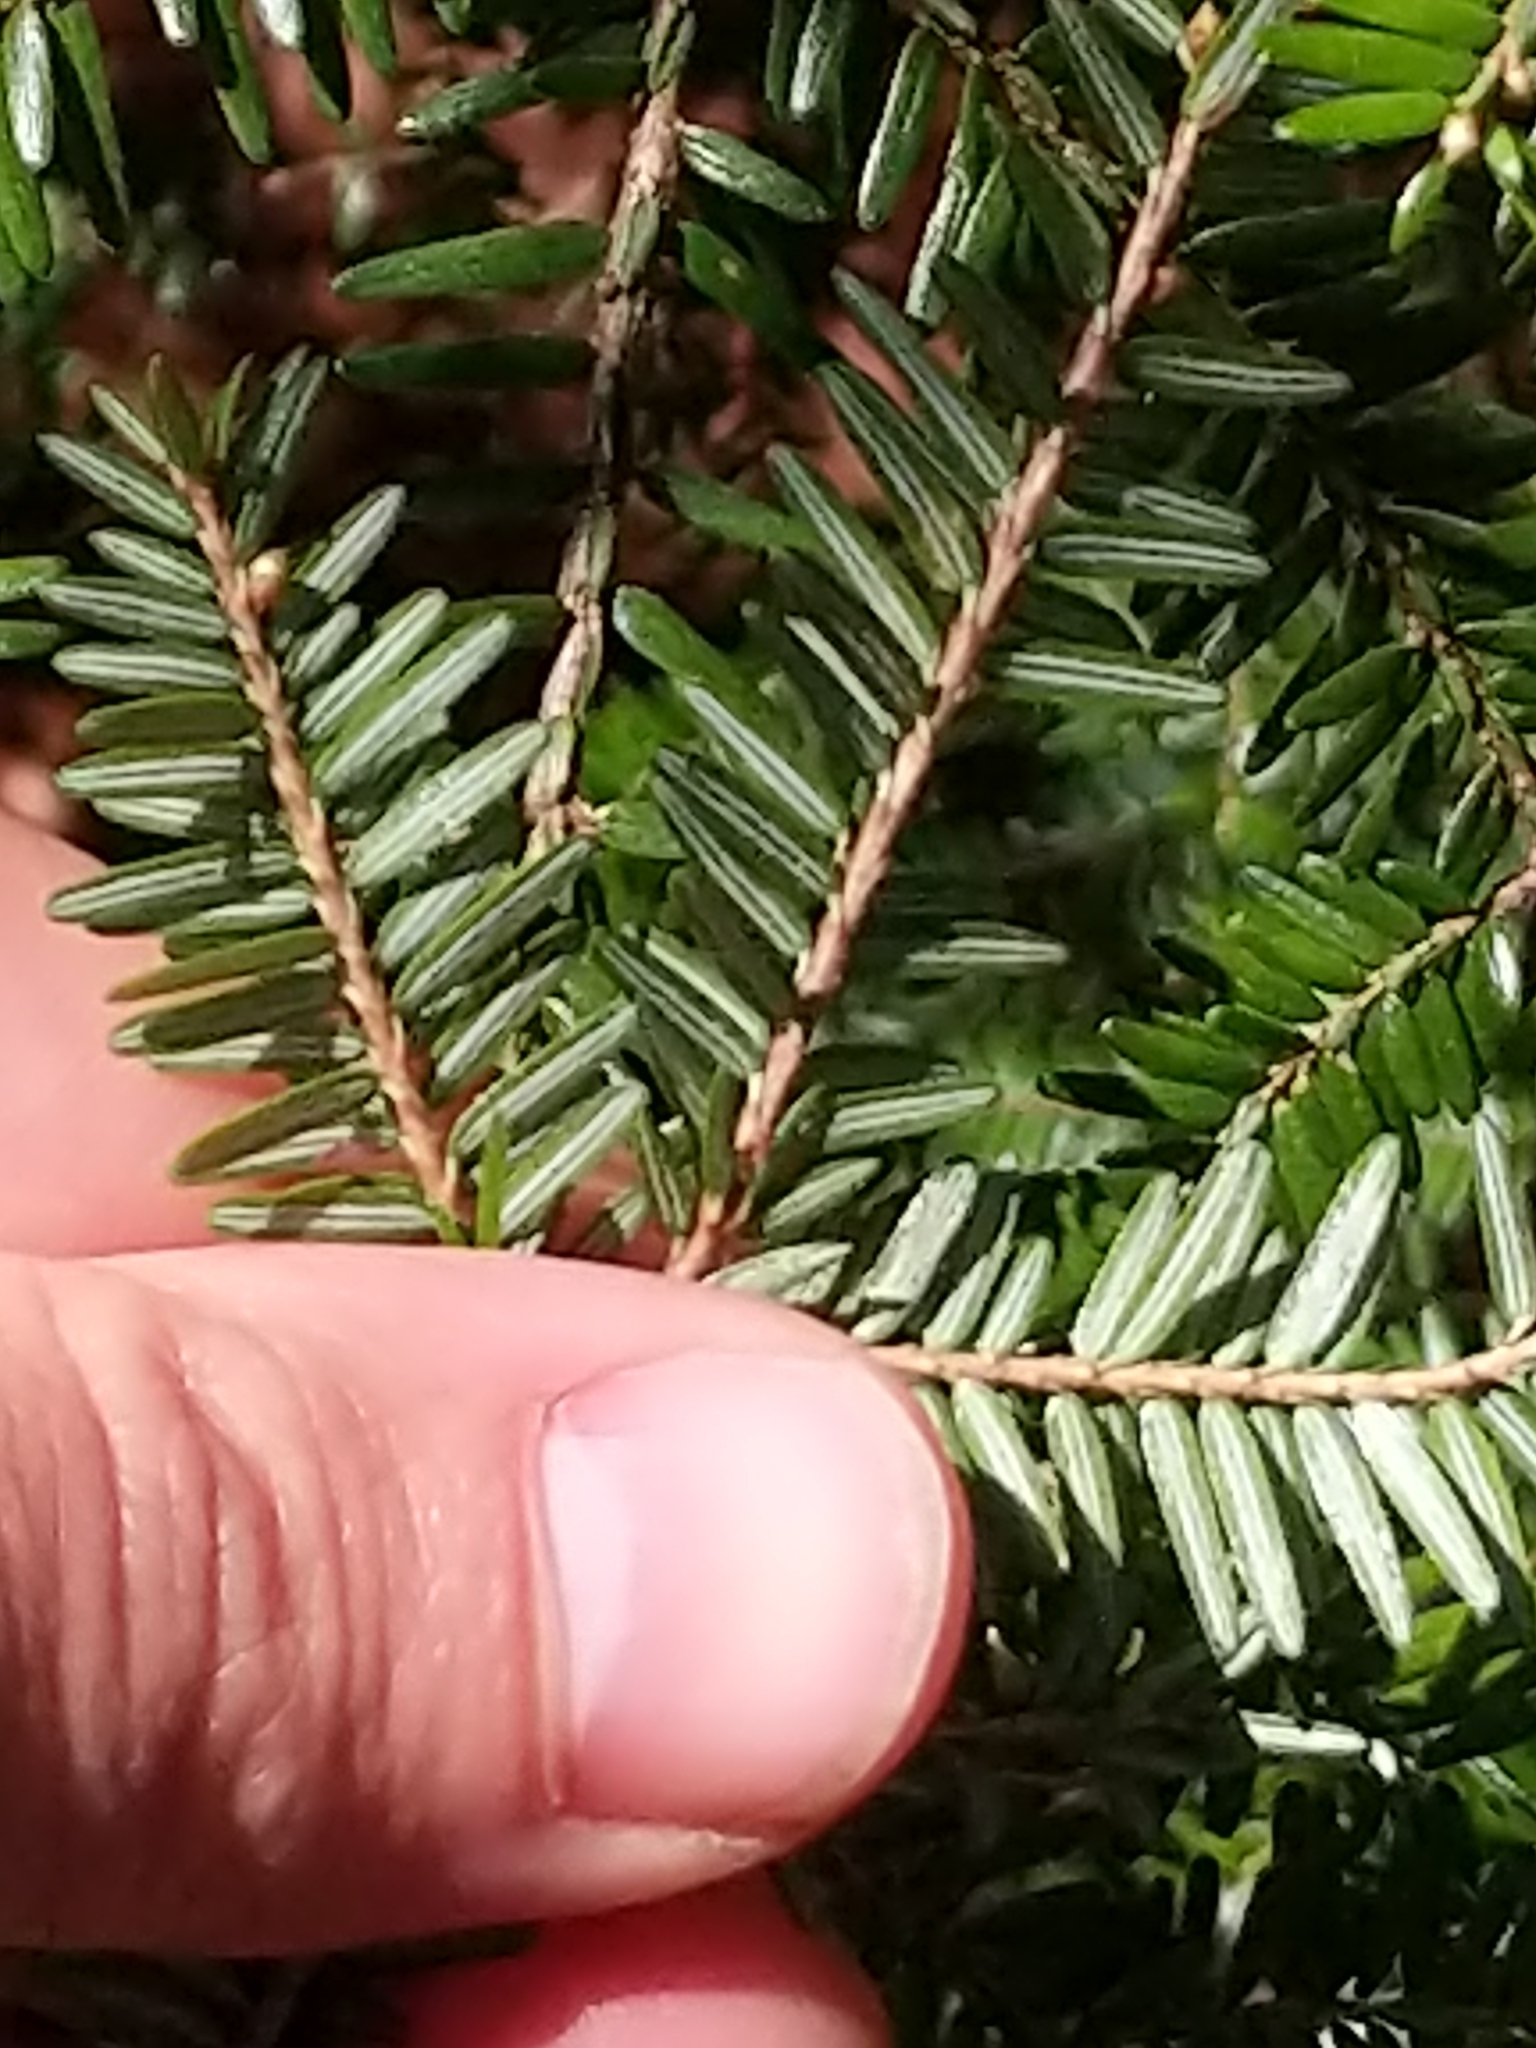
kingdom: Plantae
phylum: Tracheophyta
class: Pinopsida
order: Pinales
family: Pinaceae
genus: Tsuga
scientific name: Tsuga canadensis
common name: Eastern hemlock
